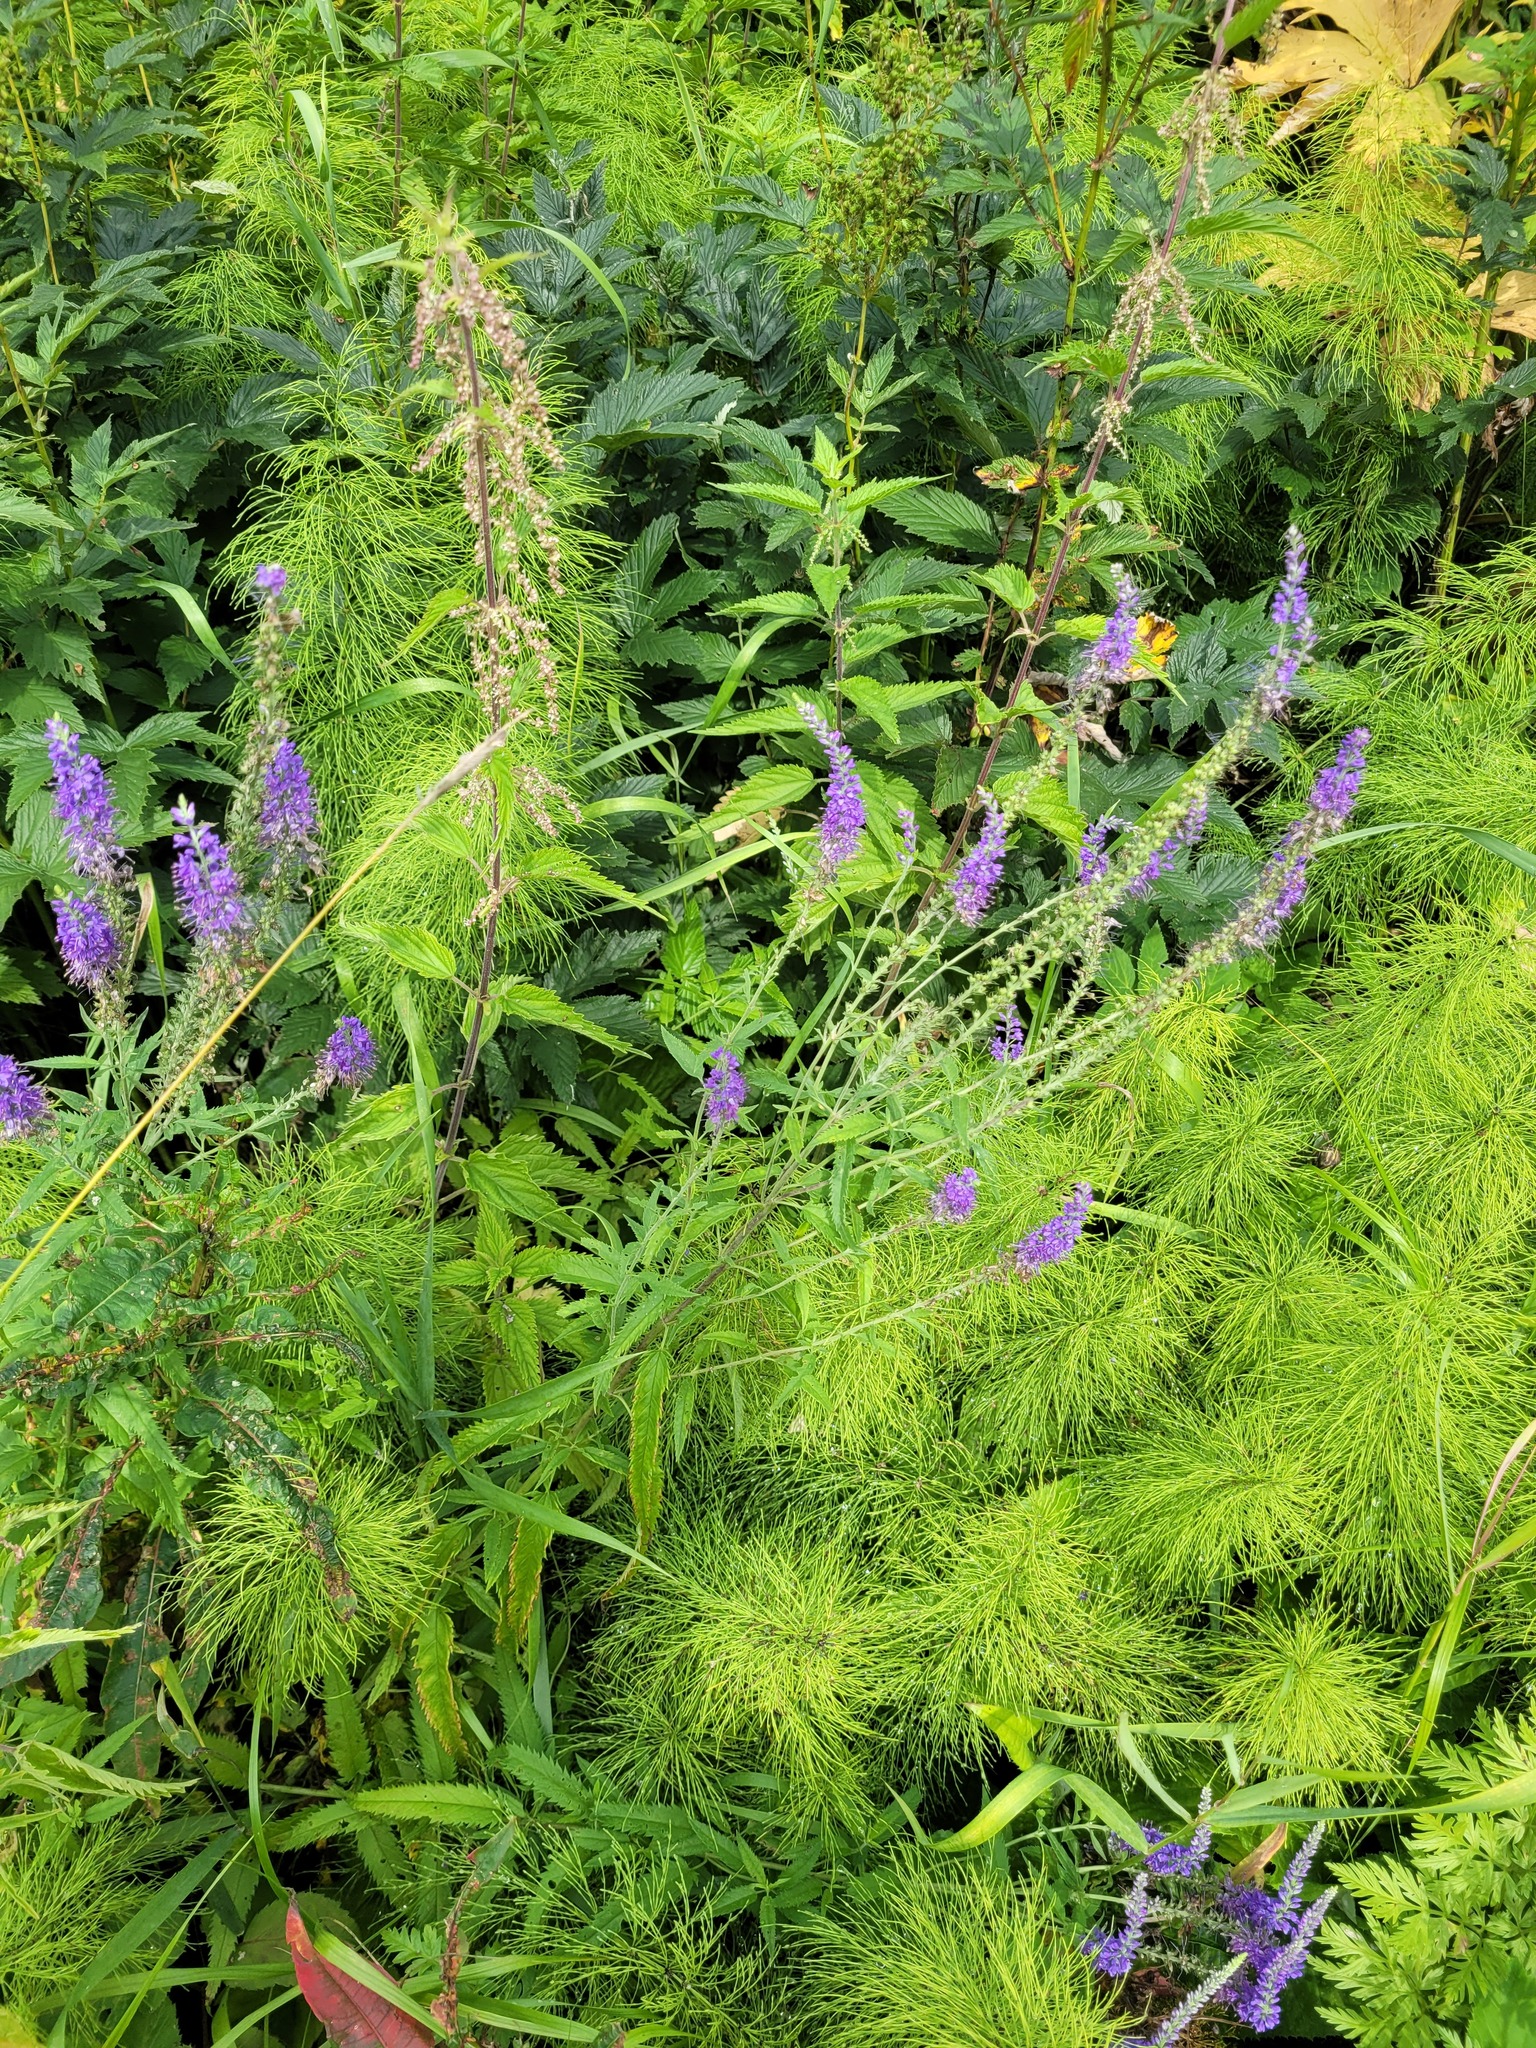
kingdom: Plantae
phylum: Tracheophyta
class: Magnoliopsida
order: Lamiales
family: Plantaginaceae
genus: Veronica
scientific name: Veronica longifolia
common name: Garden speedwell
